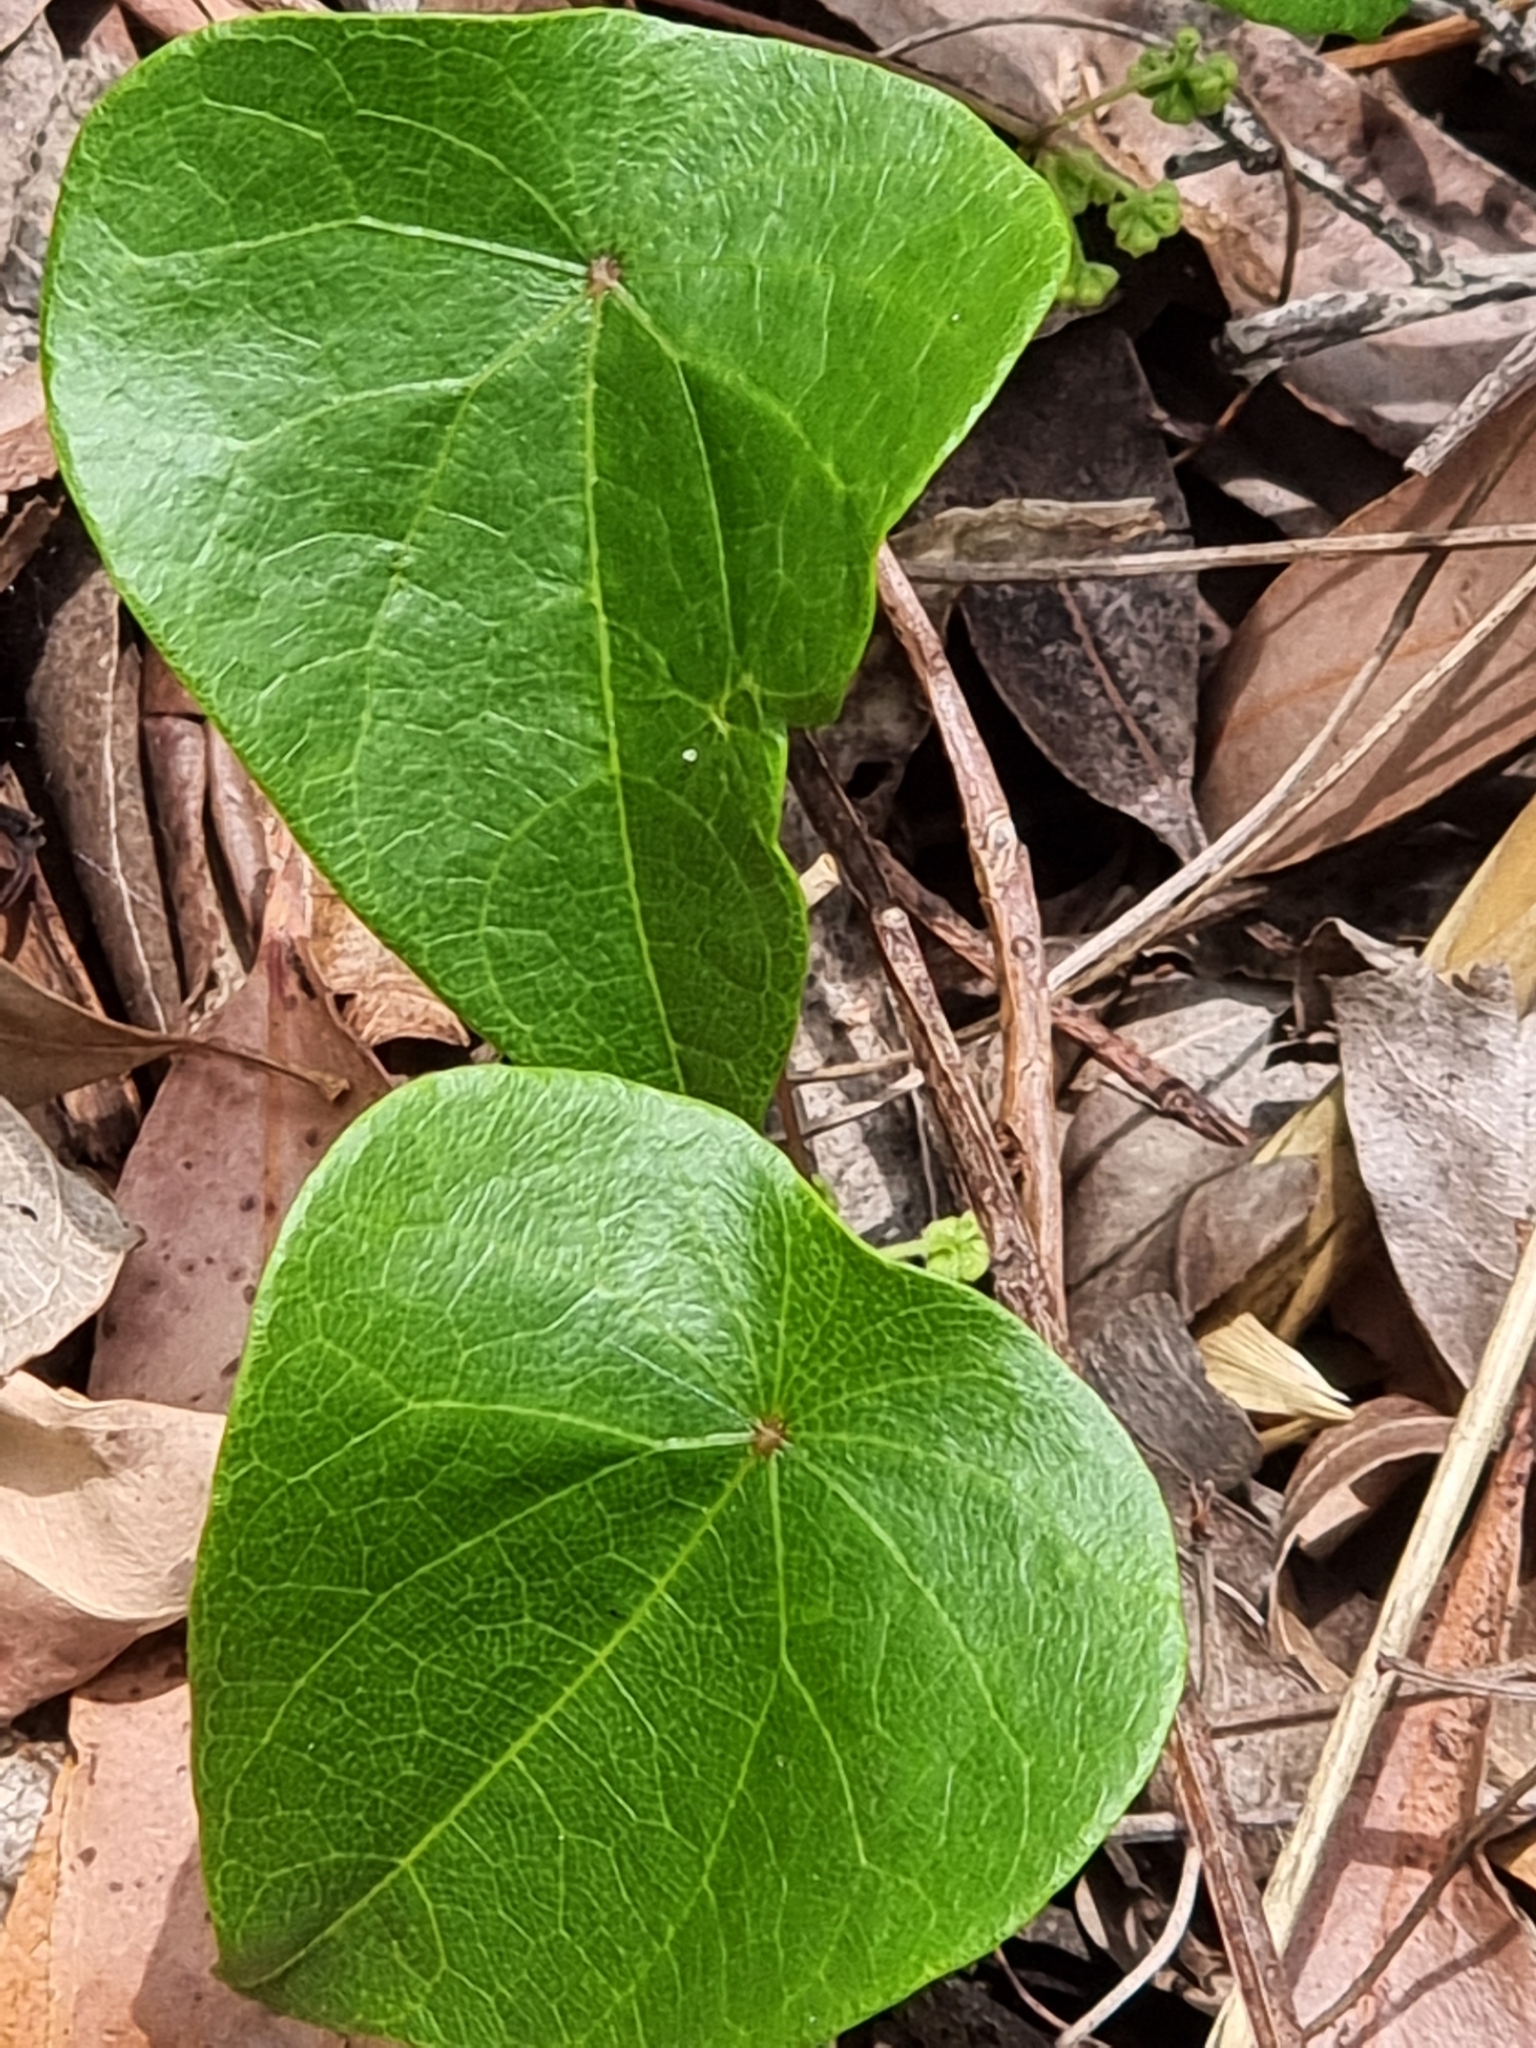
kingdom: Plantae
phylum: Tracheophyta
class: Magnoliopsida
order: Ranunculales
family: Menispermaceae
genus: Stephania
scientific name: Stephania japonica
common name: Snake vine
